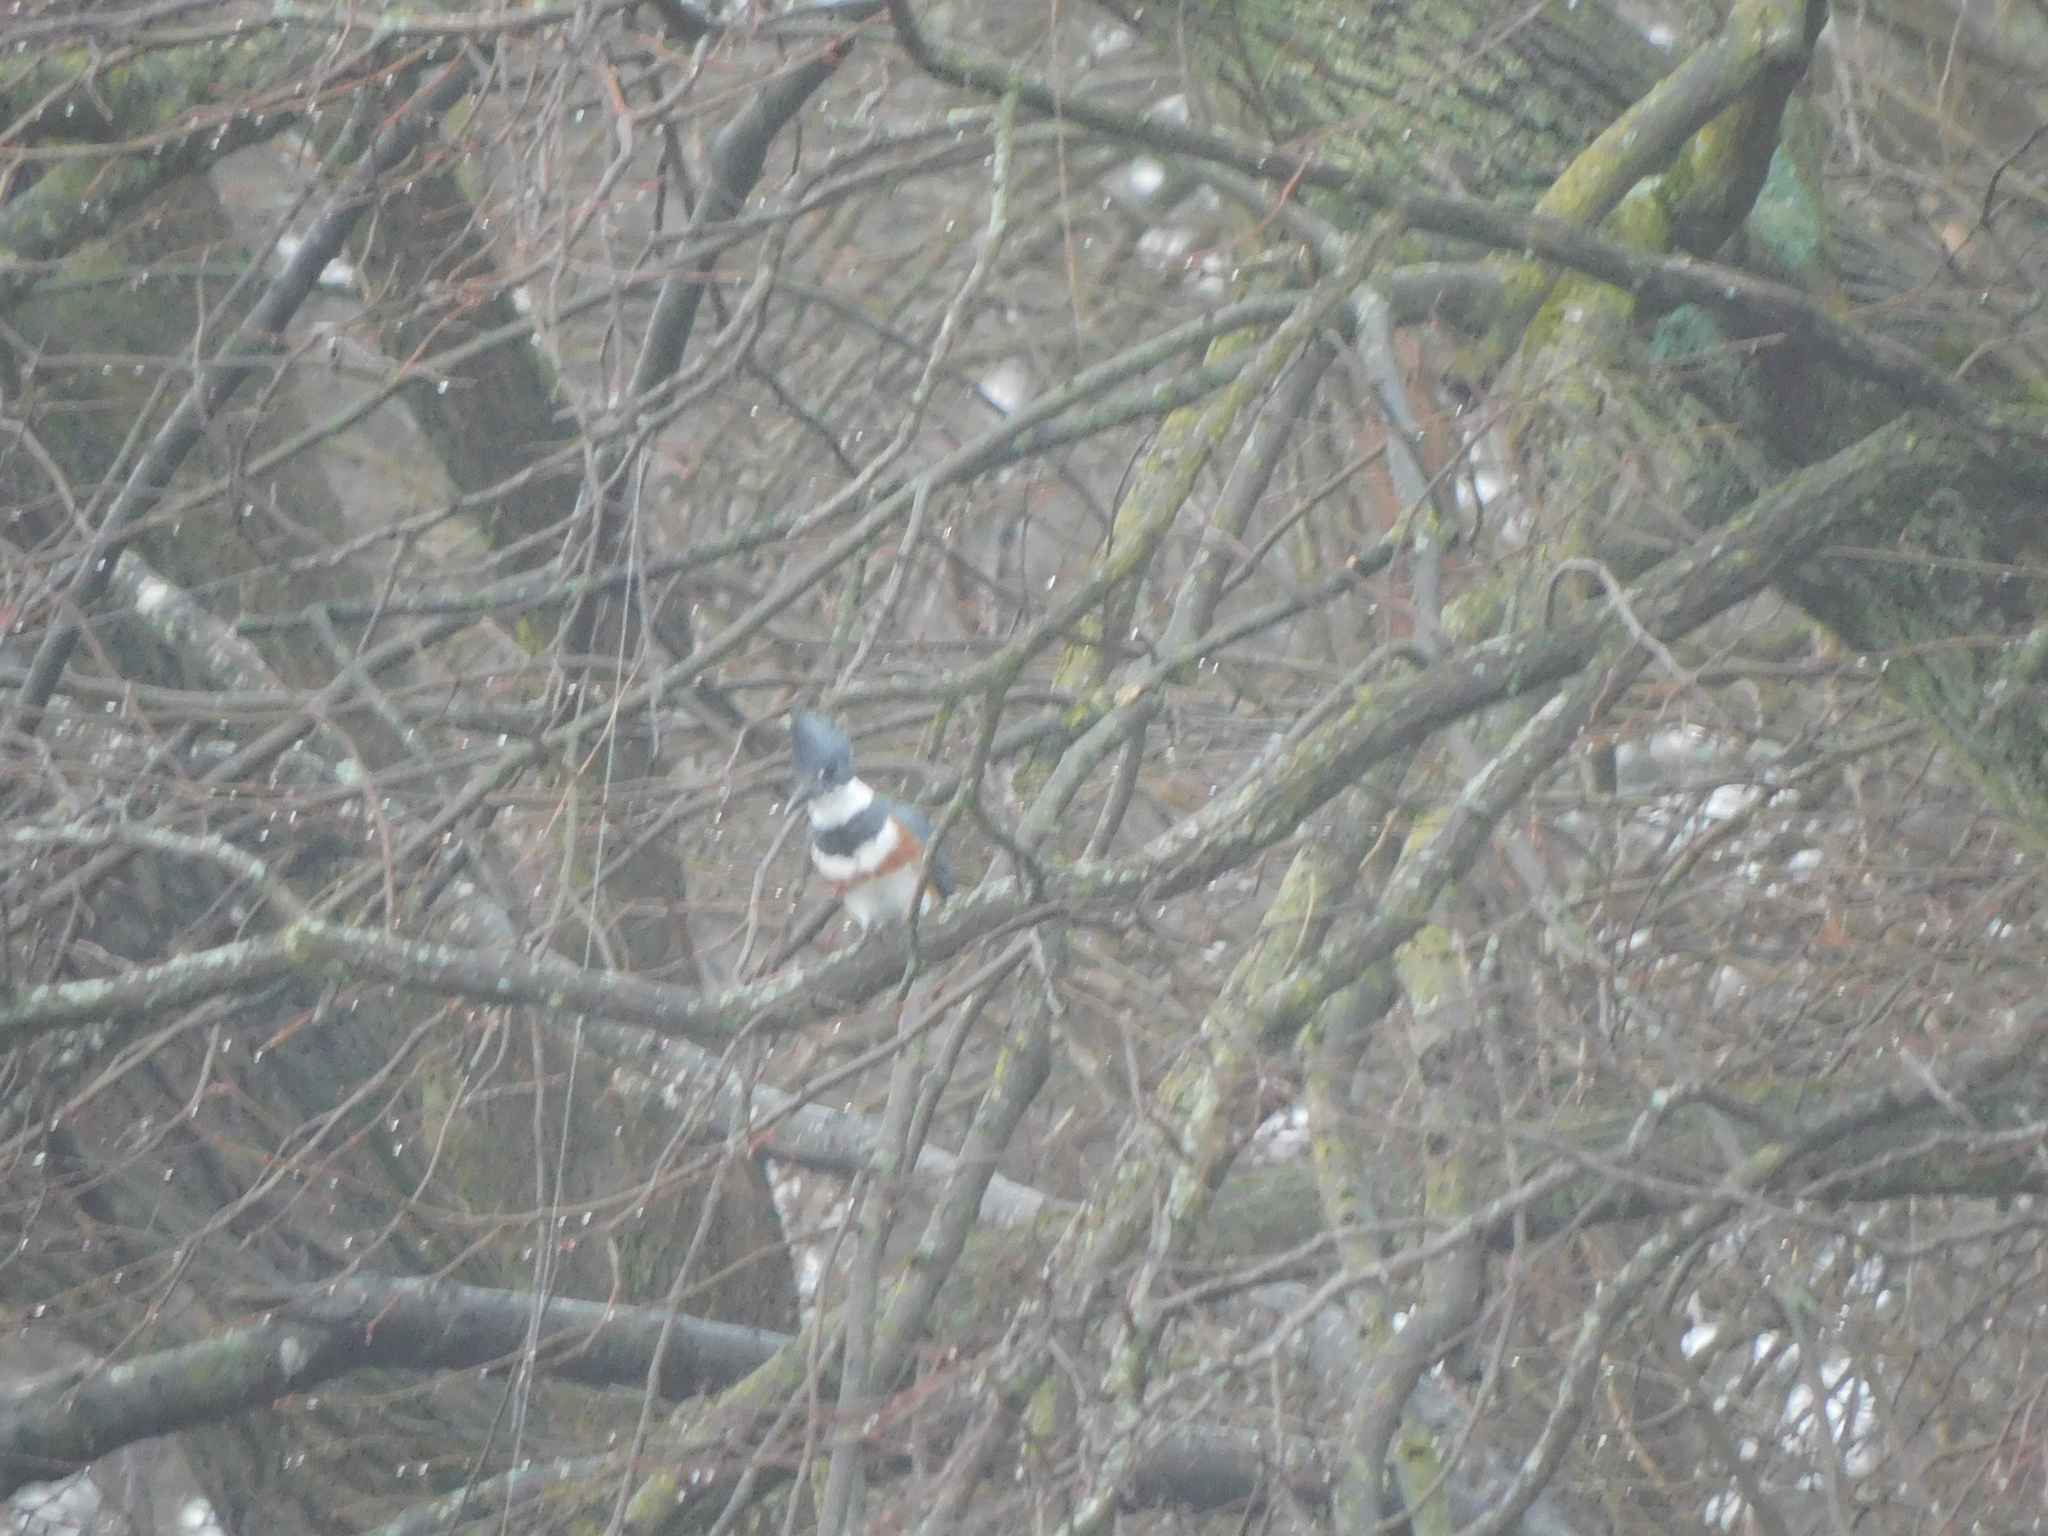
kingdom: Animalia
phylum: Chordata
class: Aves
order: Coraciiformes
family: Alcedinidae
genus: Megaceryle
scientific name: Megaceryle alcyon
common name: Belted kingfisher
